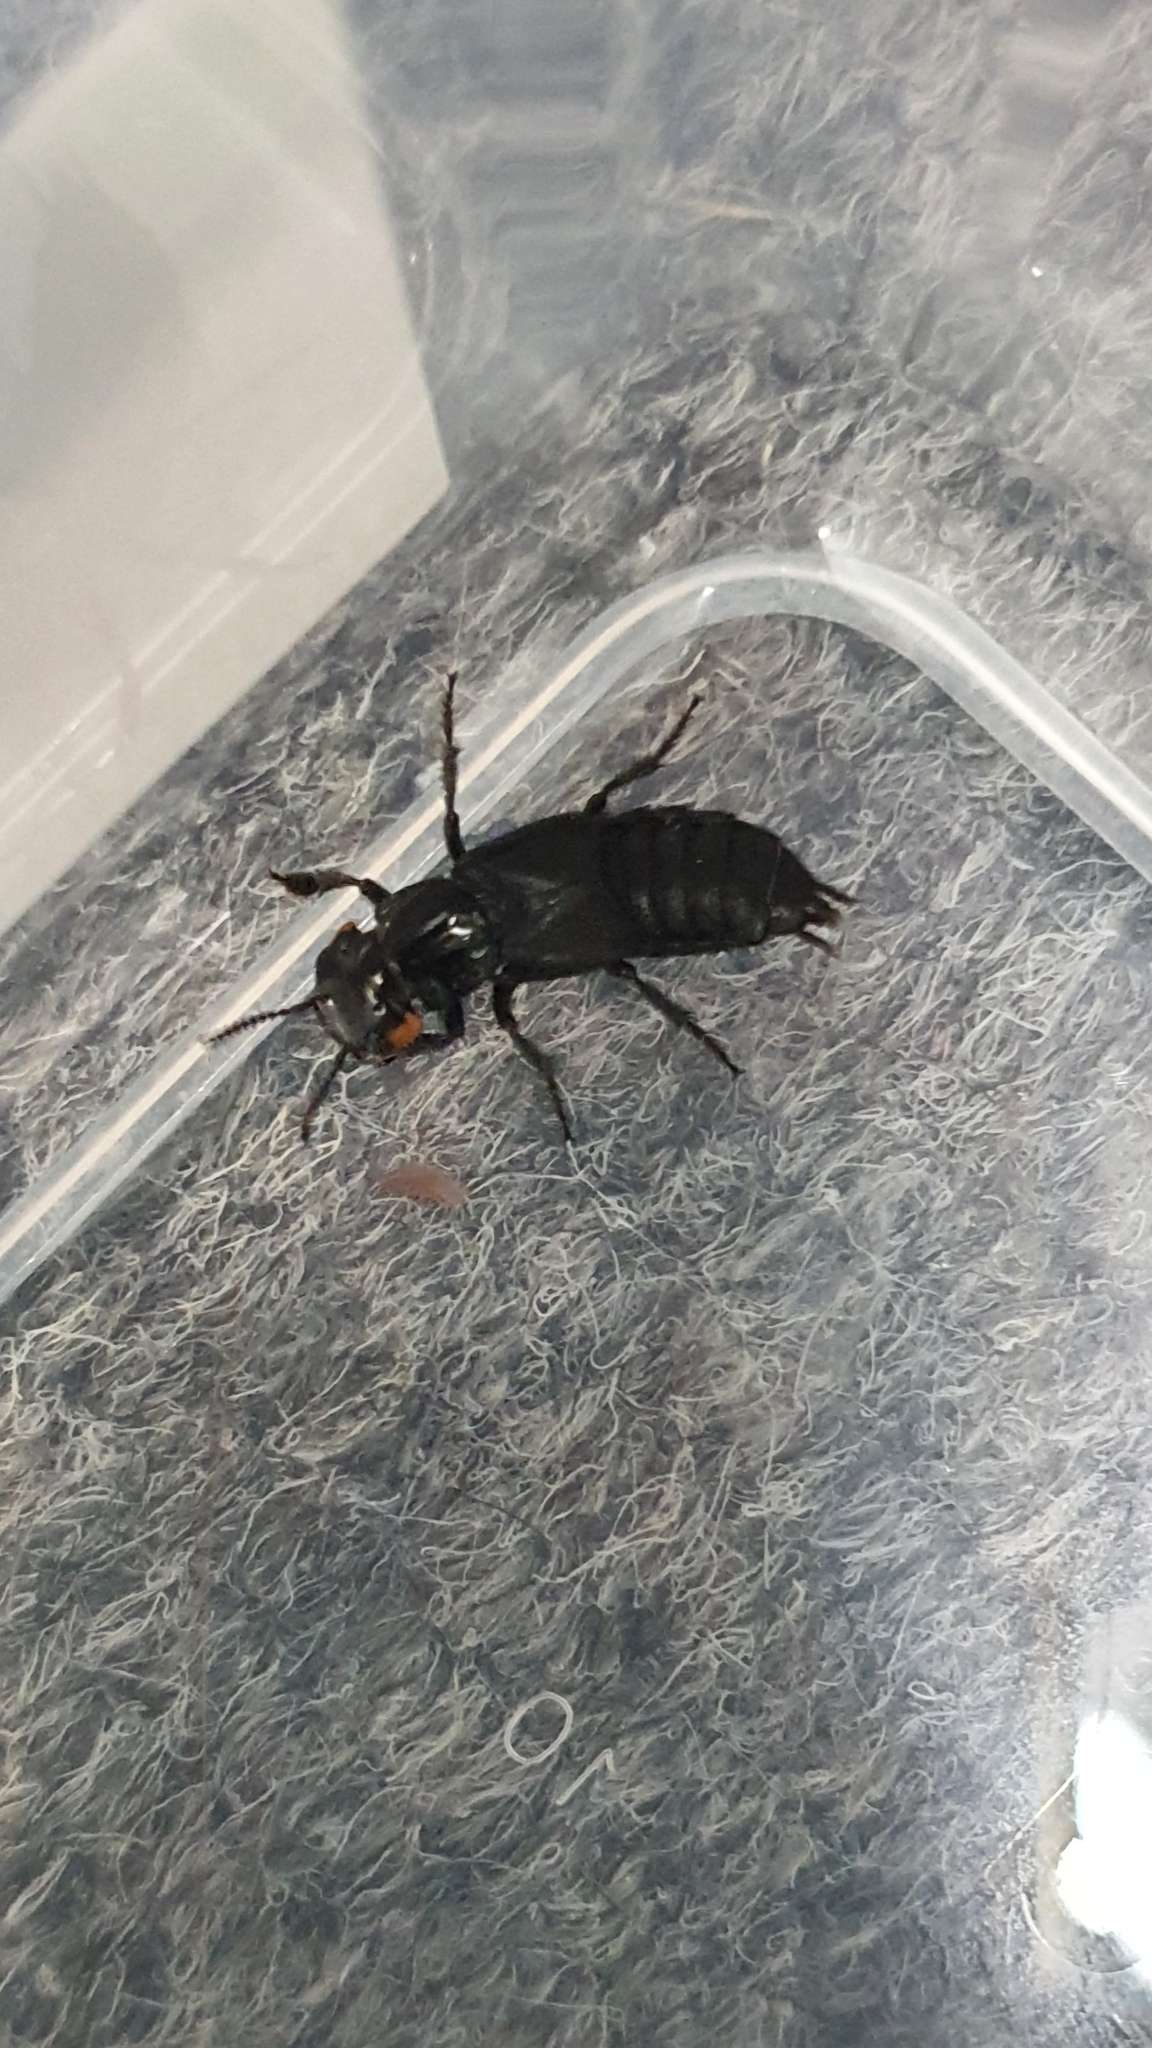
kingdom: Animalia
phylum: Arthropoda
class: Insecta
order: Coleoptera
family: Staphylinidae
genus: Creophilus
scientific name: Creophilus oculatus
